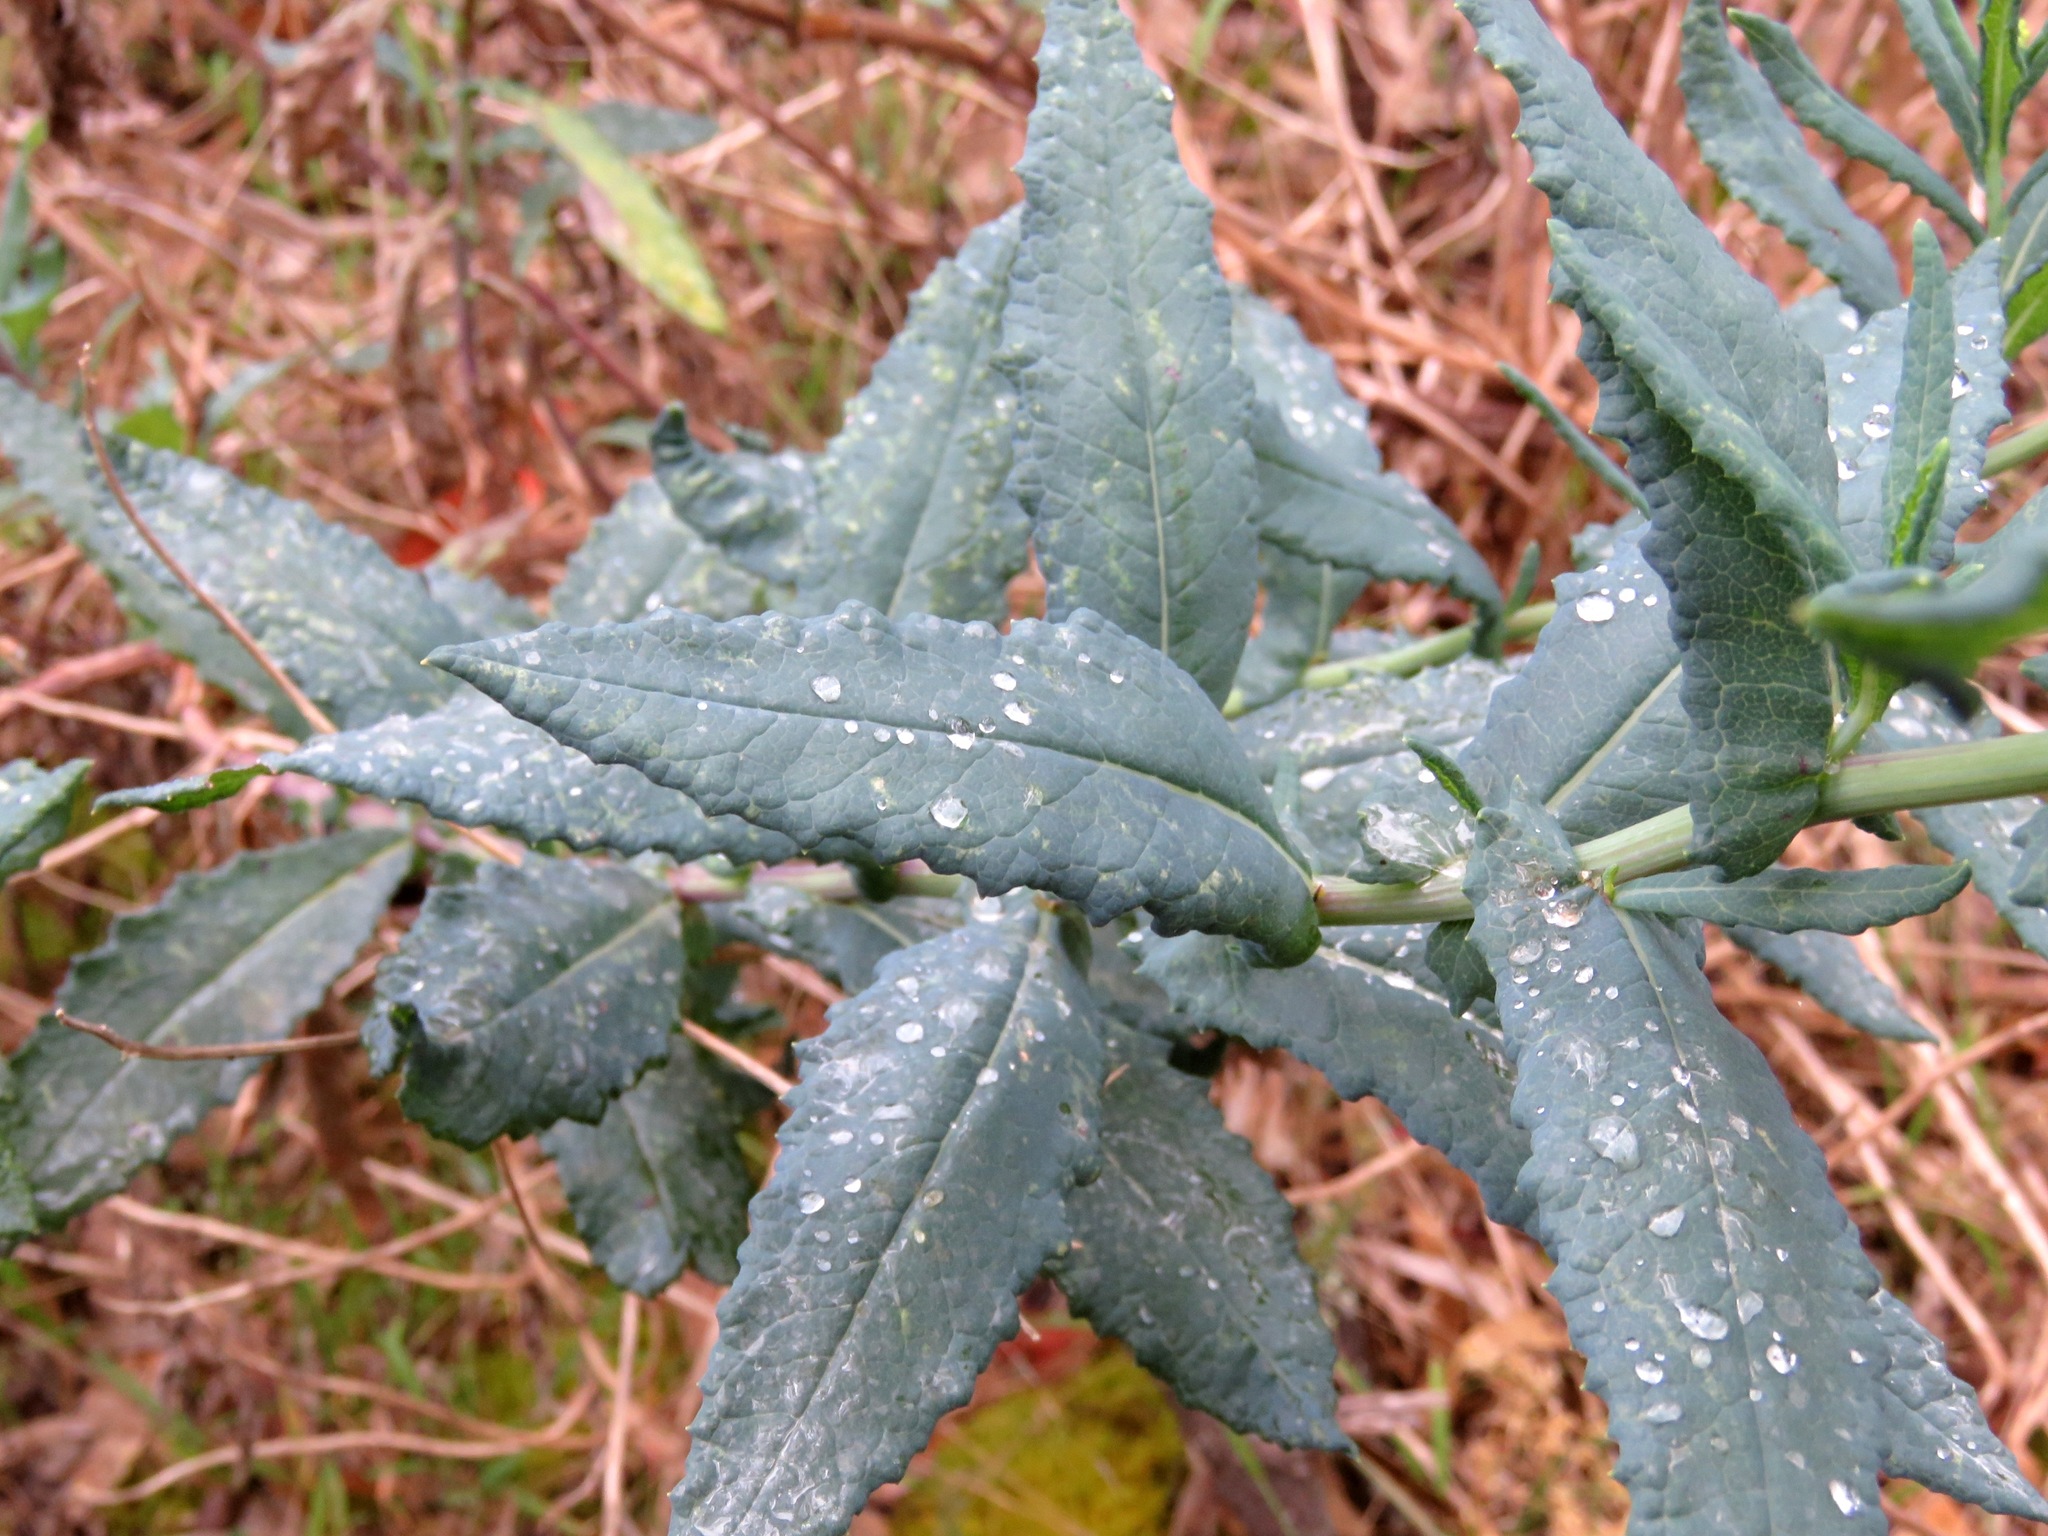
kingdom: Plantae
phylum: Tracheophyta
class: Magnoliopsida
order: Asterales
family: Asteraceae
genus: Senecio
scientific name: Senecio odoratus
